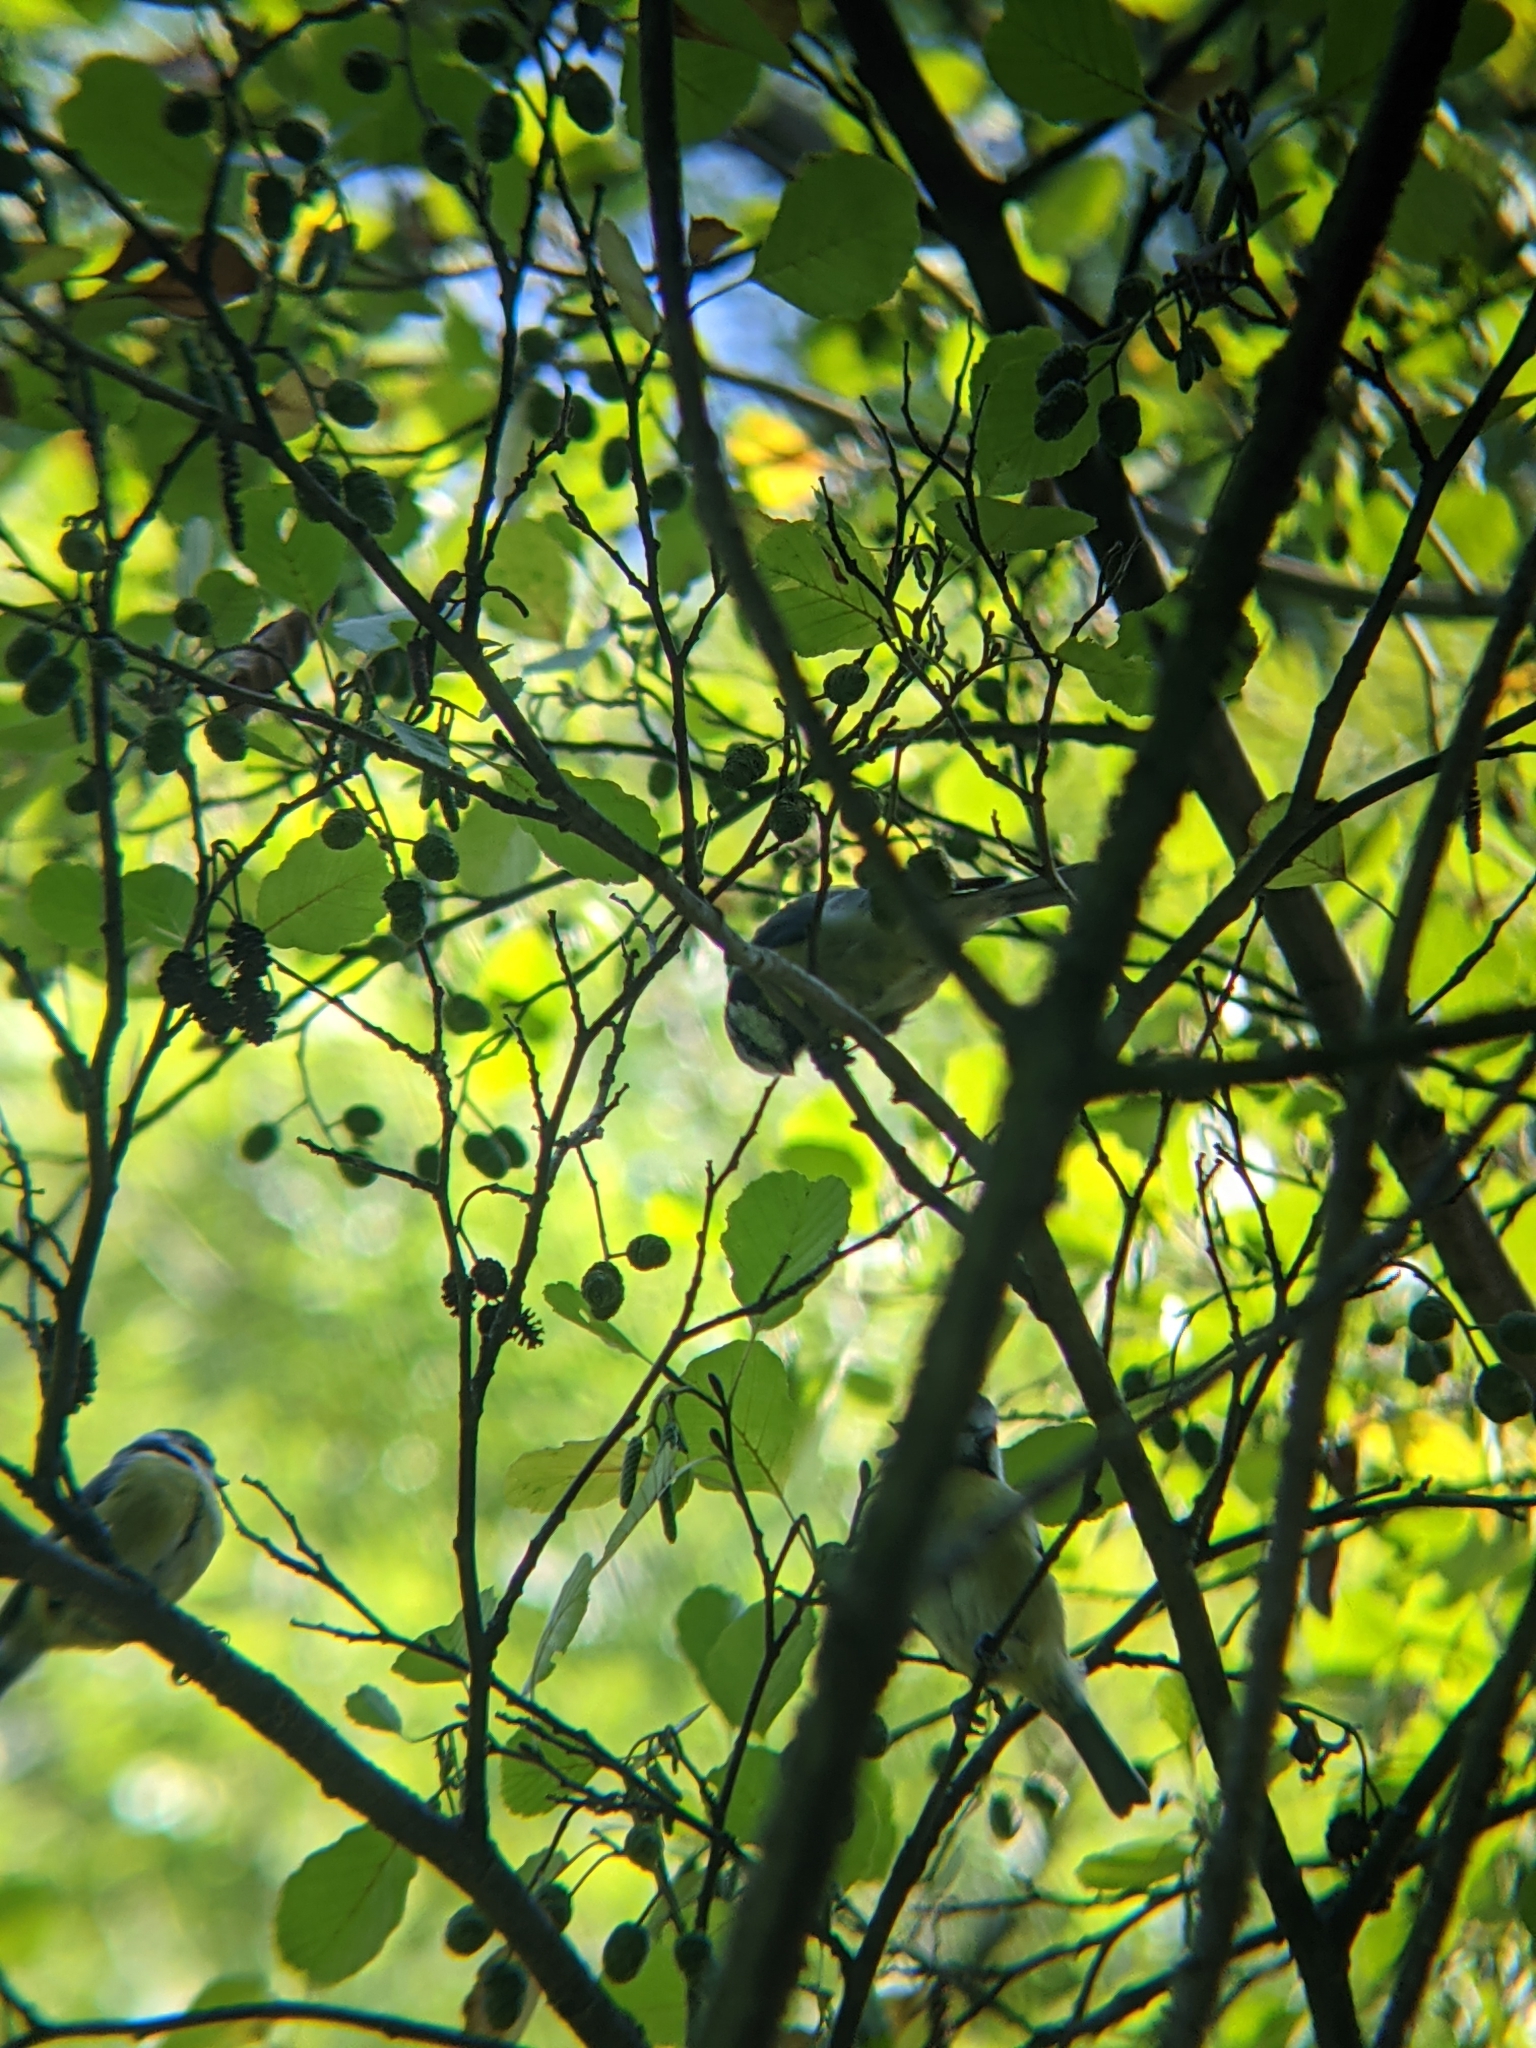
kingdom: Animalia
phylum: Chordata
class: Aves
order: Passeriformes
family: Paridae
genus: Cyanistes
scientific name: Cyanistes caeruleus
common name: Eurasian blue tit
